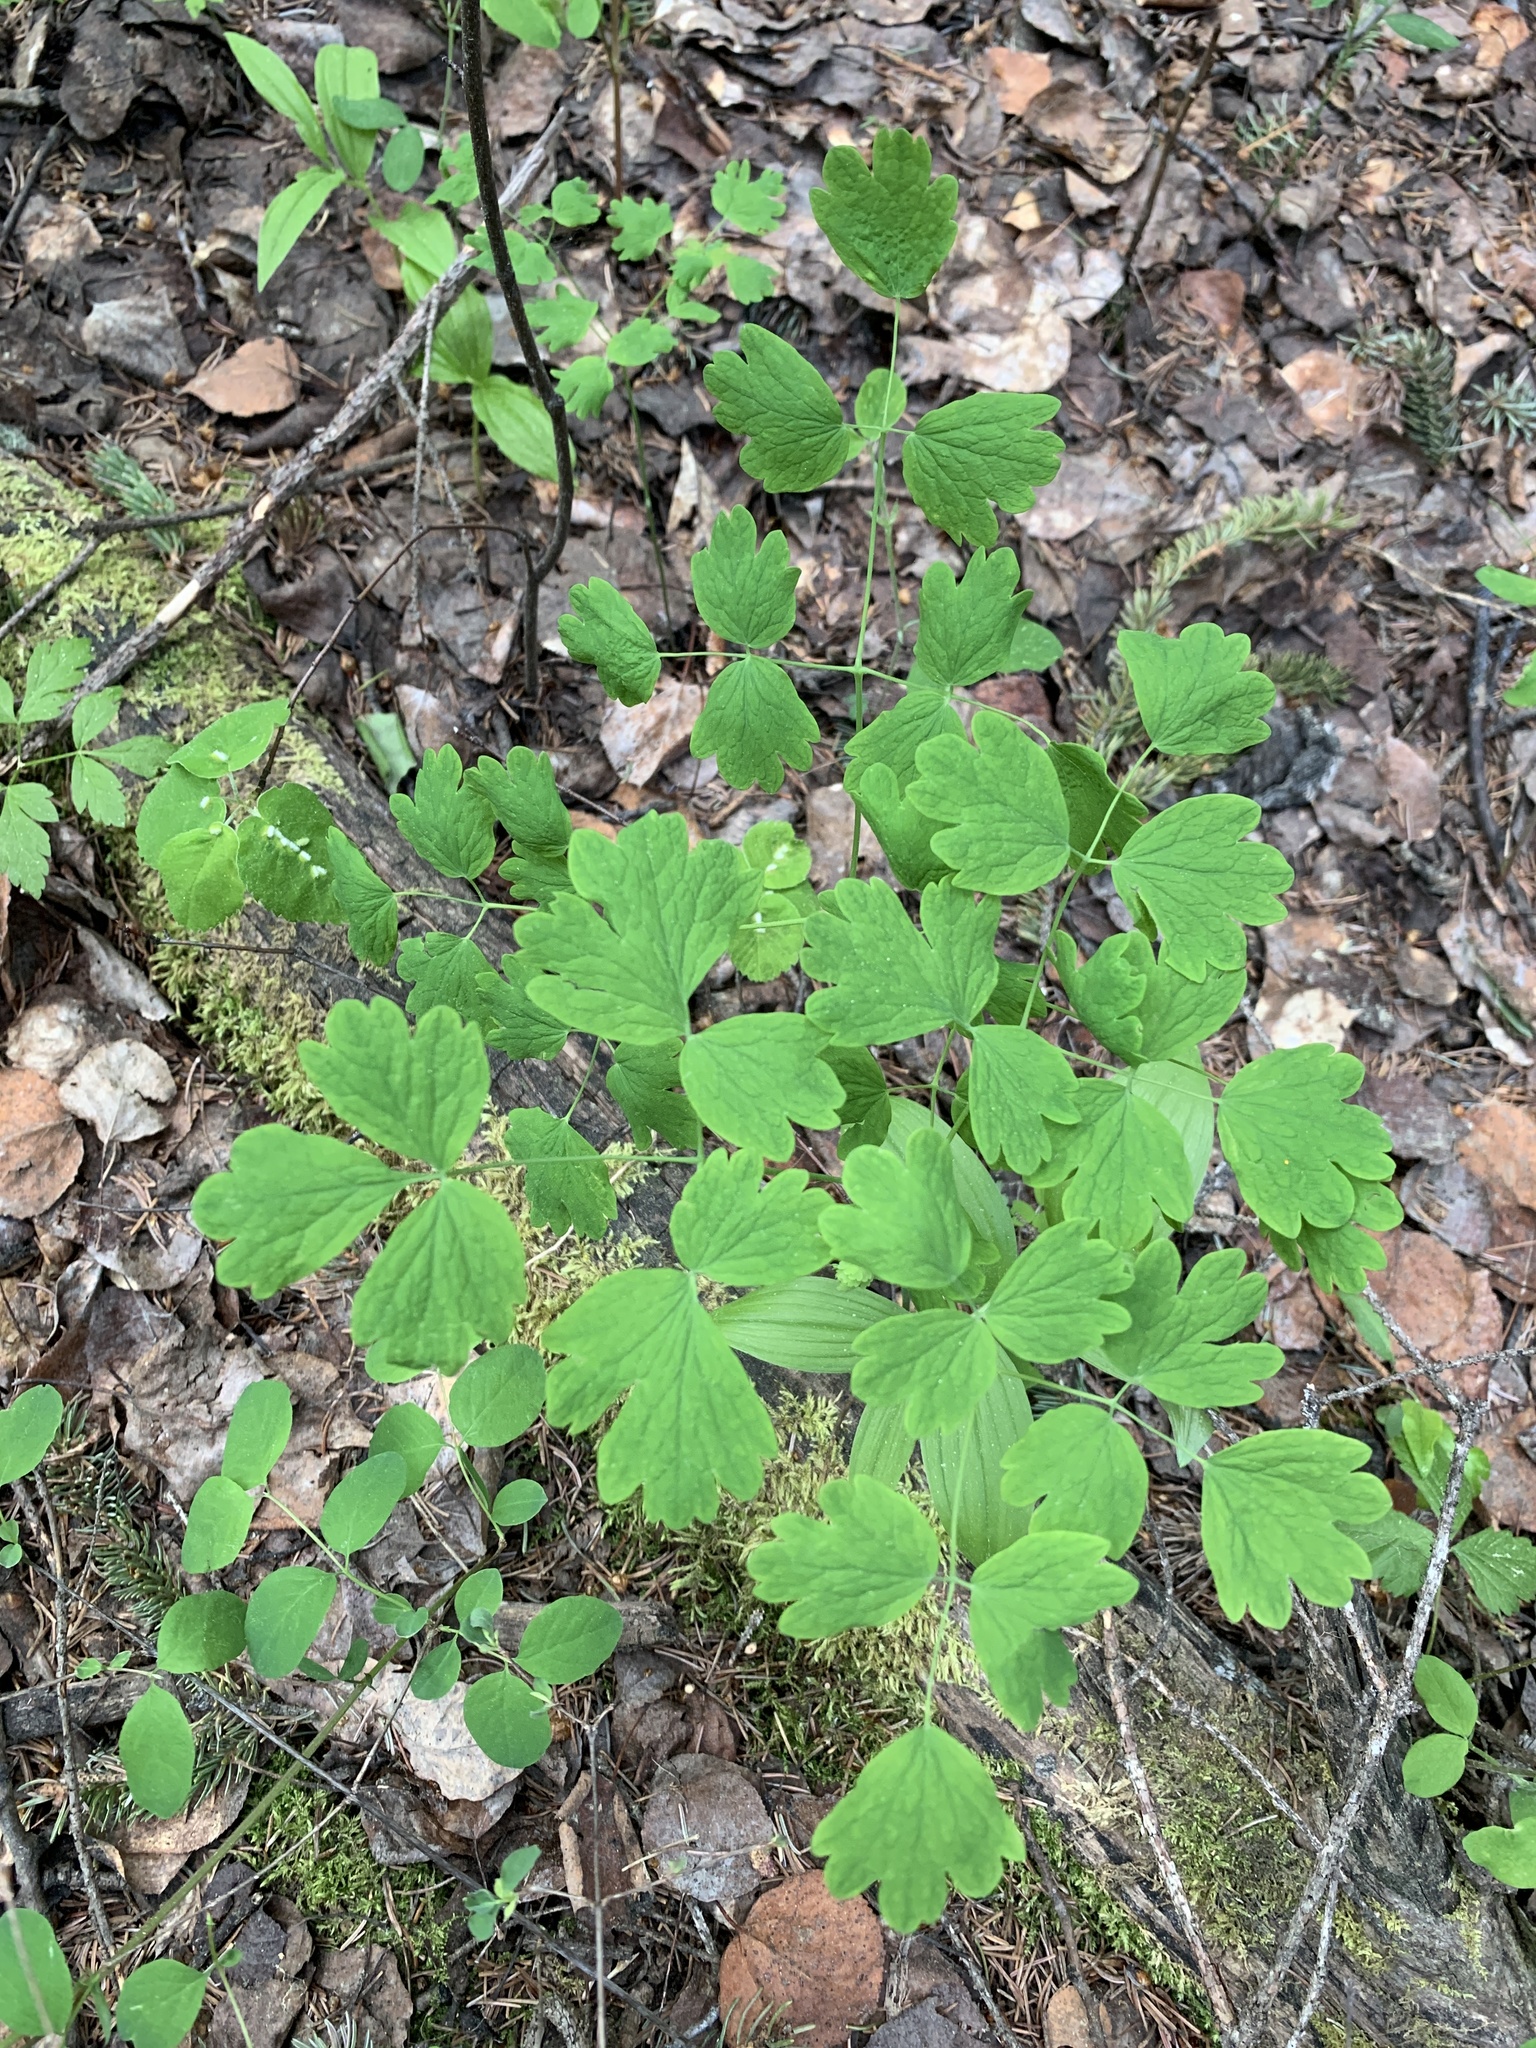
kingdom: Plantae
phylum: Tracheophyta
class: Magnoliopsida
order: Ranunculales
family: Ranunculaceae
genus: Thalictrum
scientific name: Thalictrum occidentale
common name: Western meadow-rue
